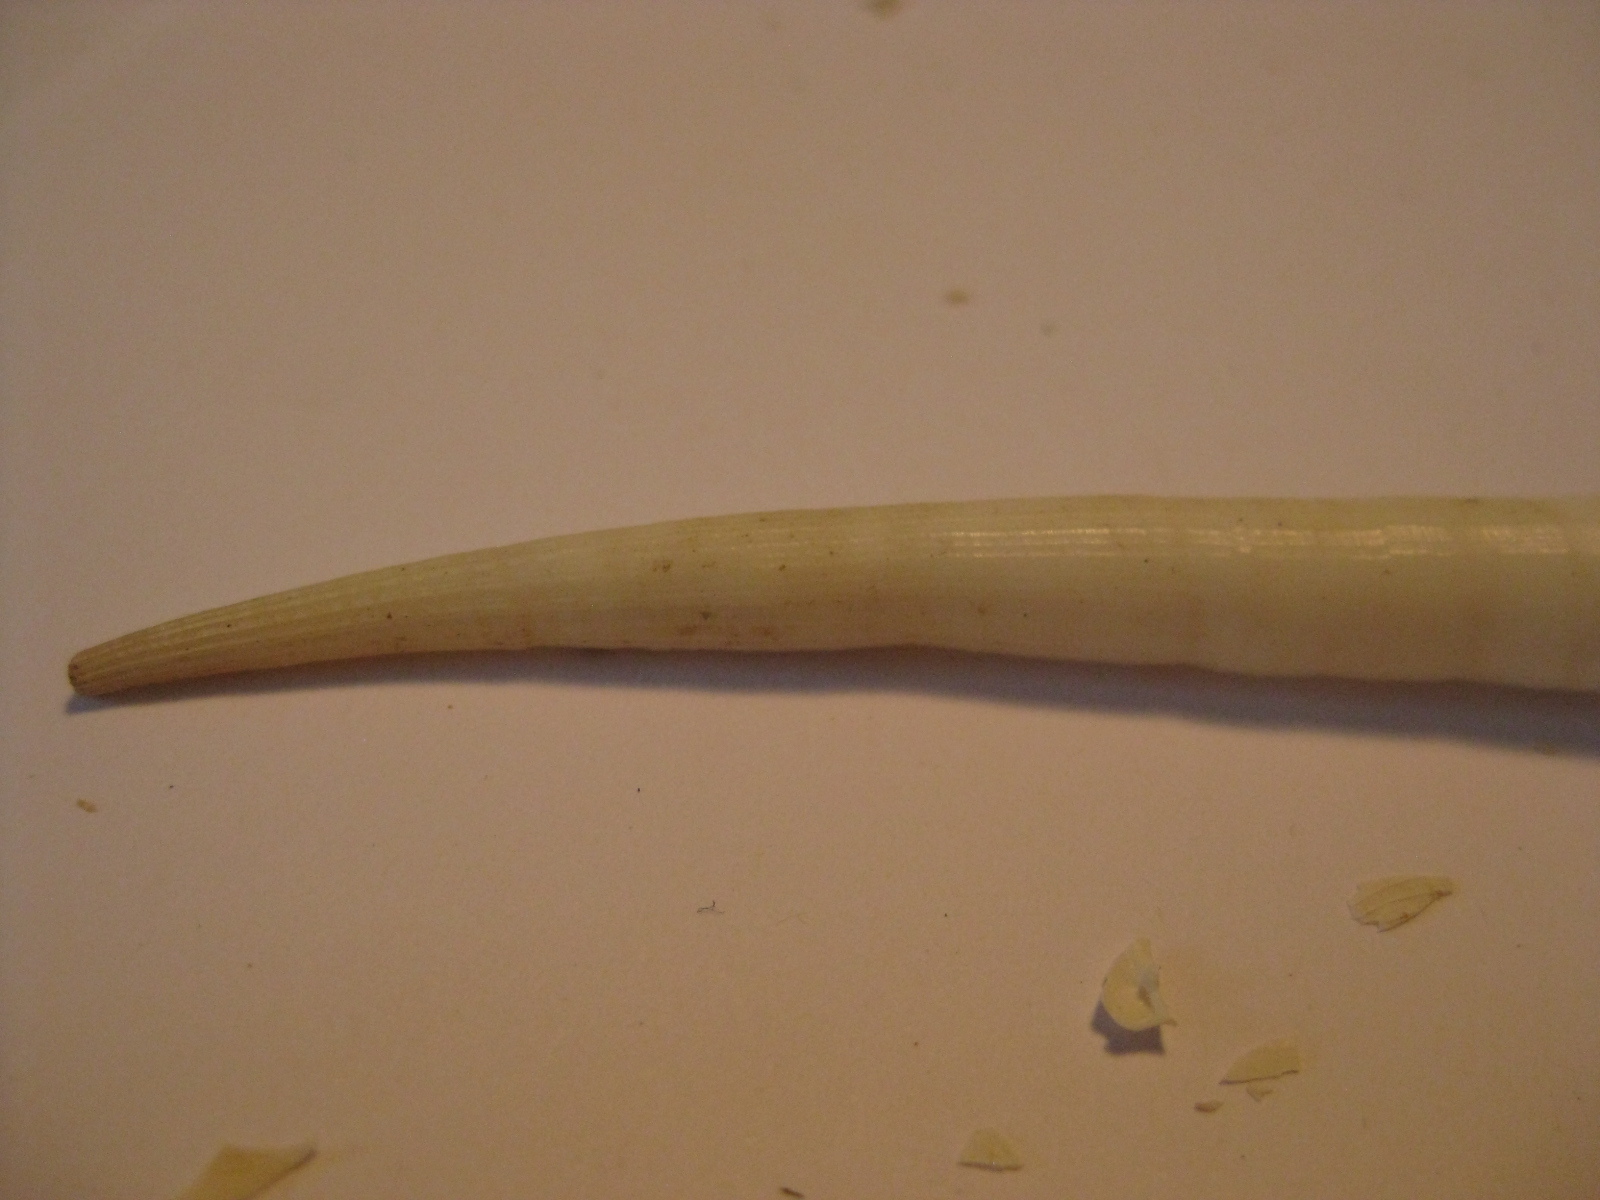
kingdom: Animalia
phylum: Mollusca
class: Scaphopoda
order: Dentaliida
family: Dentaliidae
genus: Fissidentalium
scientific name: Fissidentalium zelandicum
